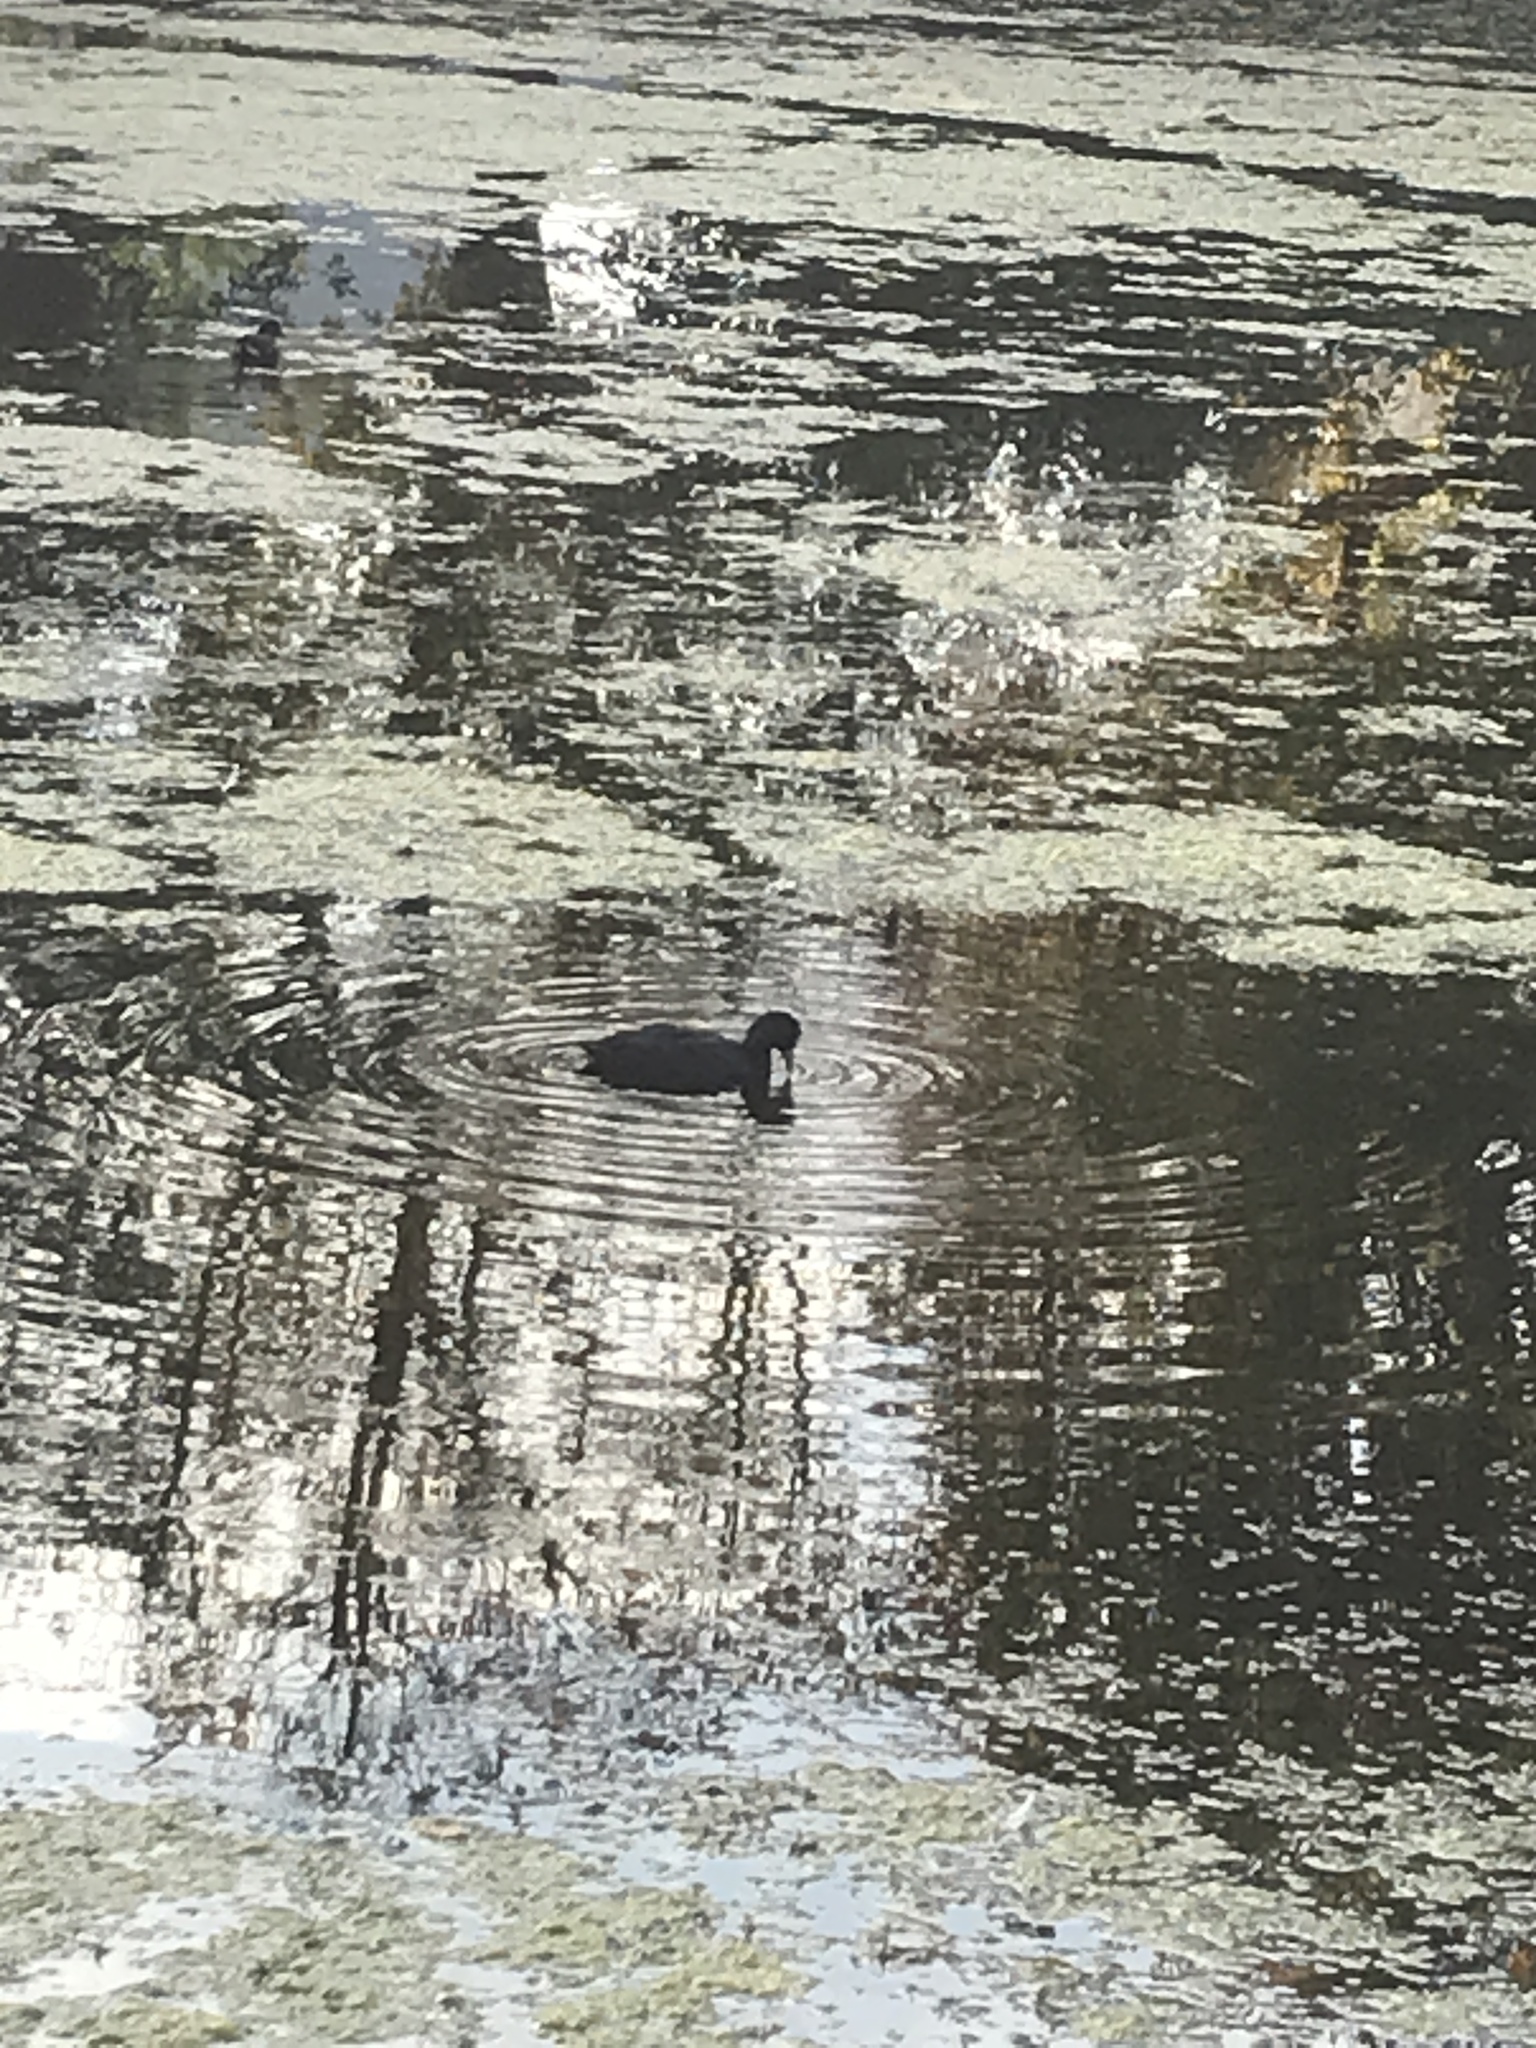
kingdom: Animalia
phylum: Chordata
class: Aves
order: Gruiformes
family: Rallidae
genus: Fulica
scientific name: Fulica atra
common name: Eurasian coot
